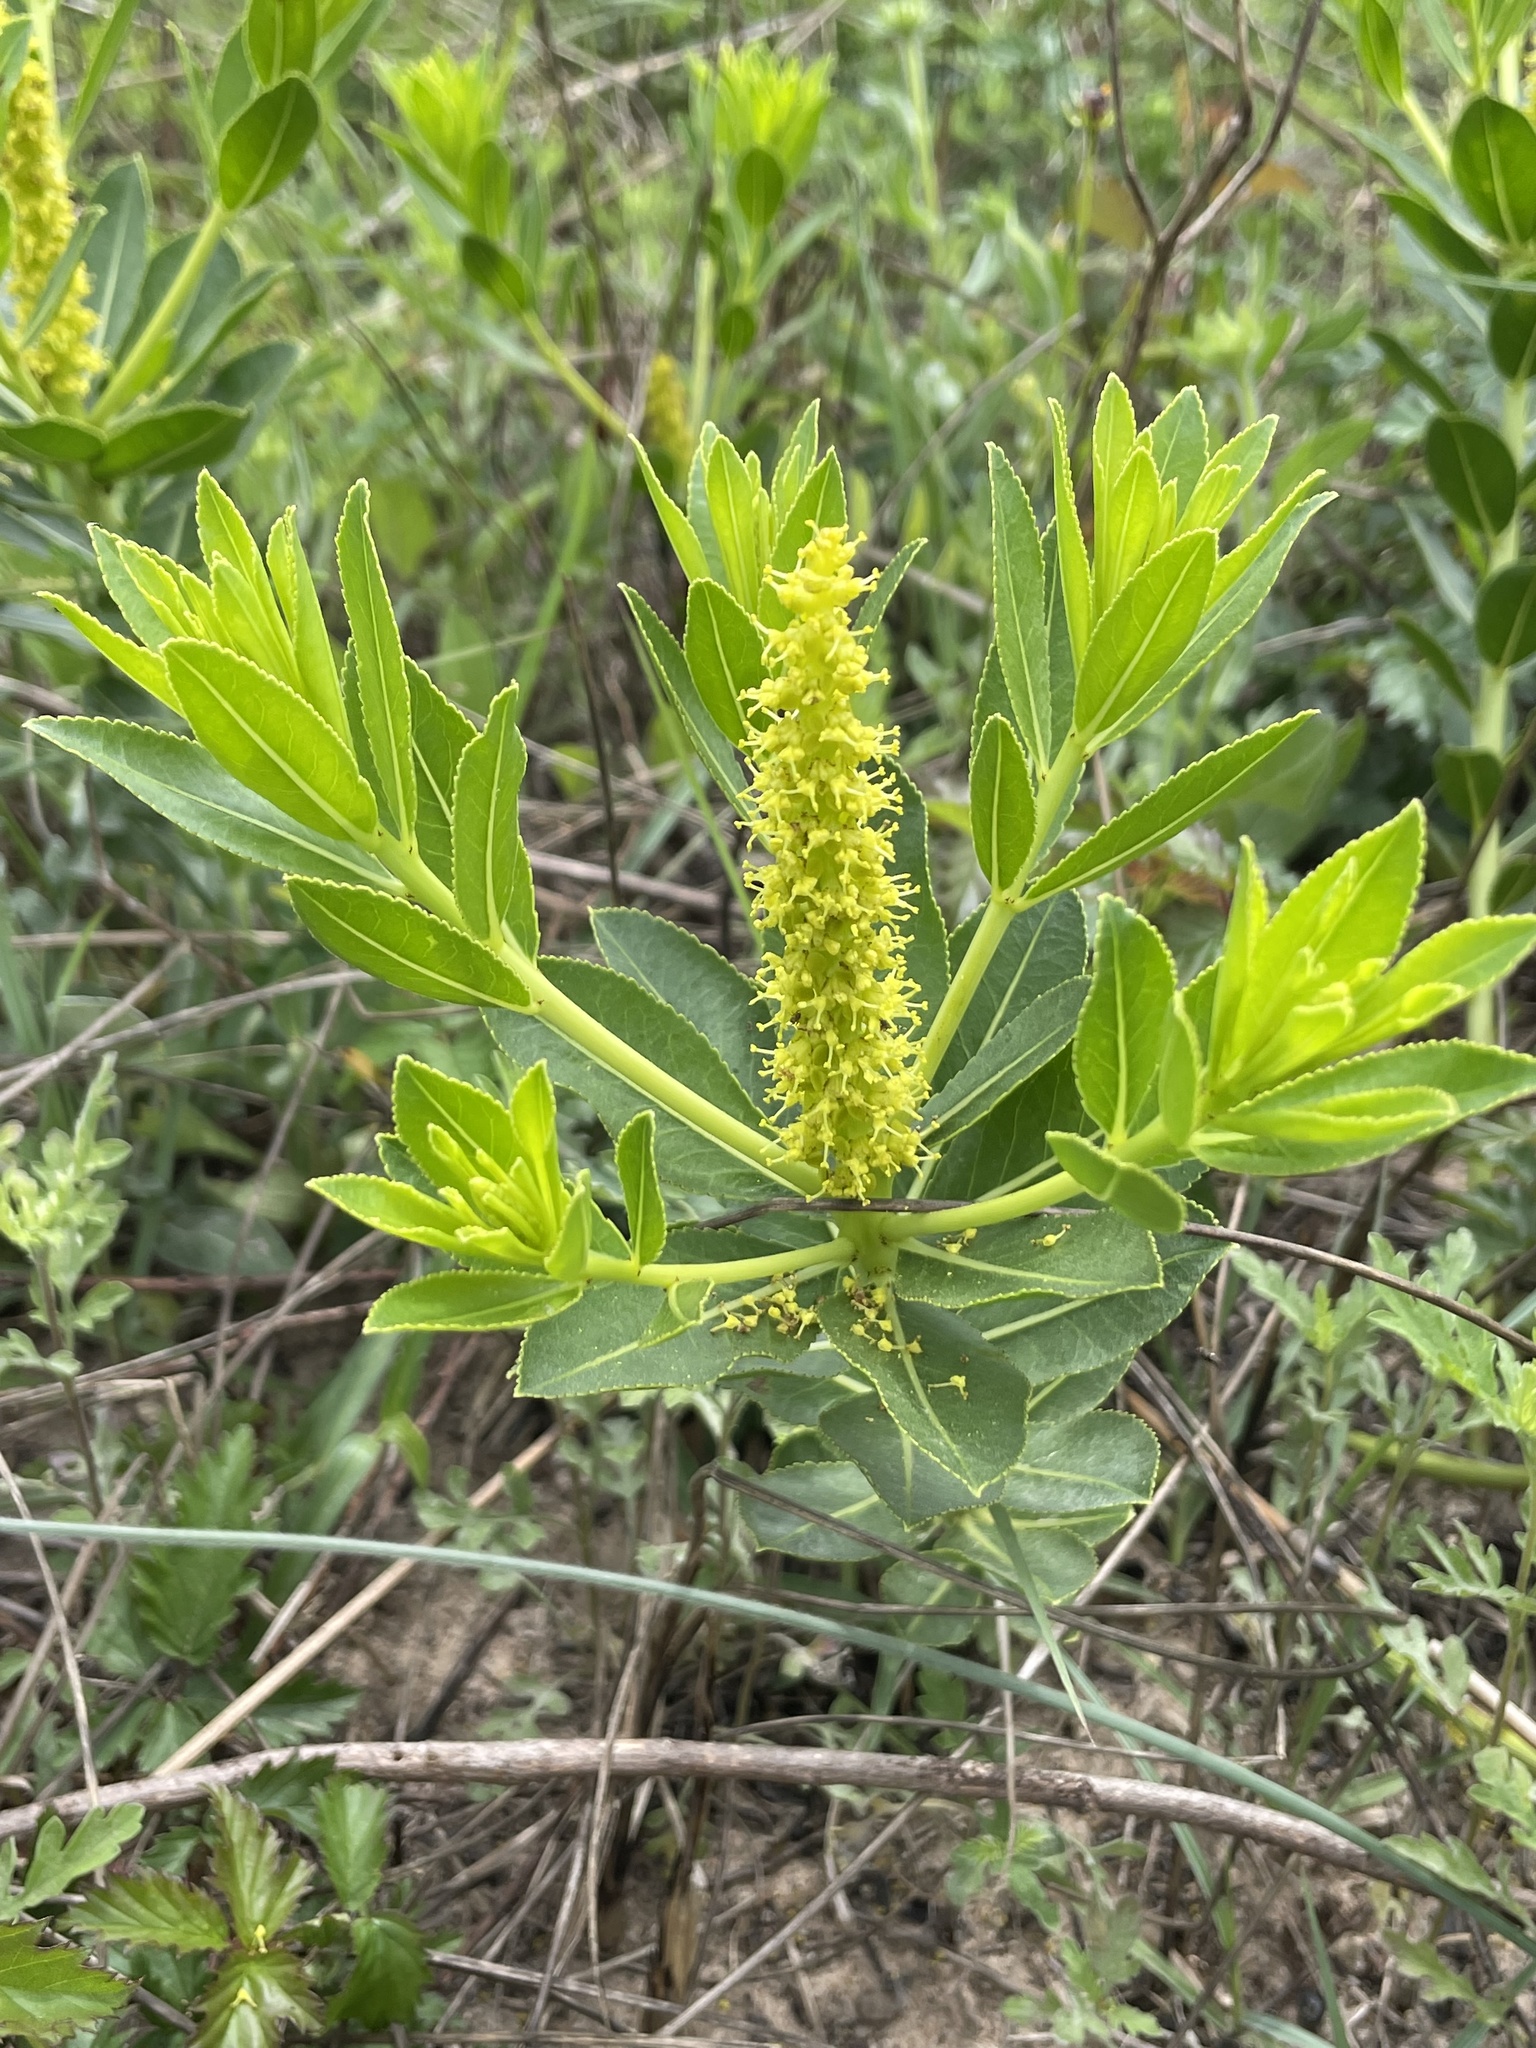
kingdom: Plantae
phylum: Tracheophyta
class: Magnoliopsida
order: Malpighiales
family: Euphorbiaceae
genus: Stillingia
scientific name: Stillingia sylvatica
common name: Queen's-delight
